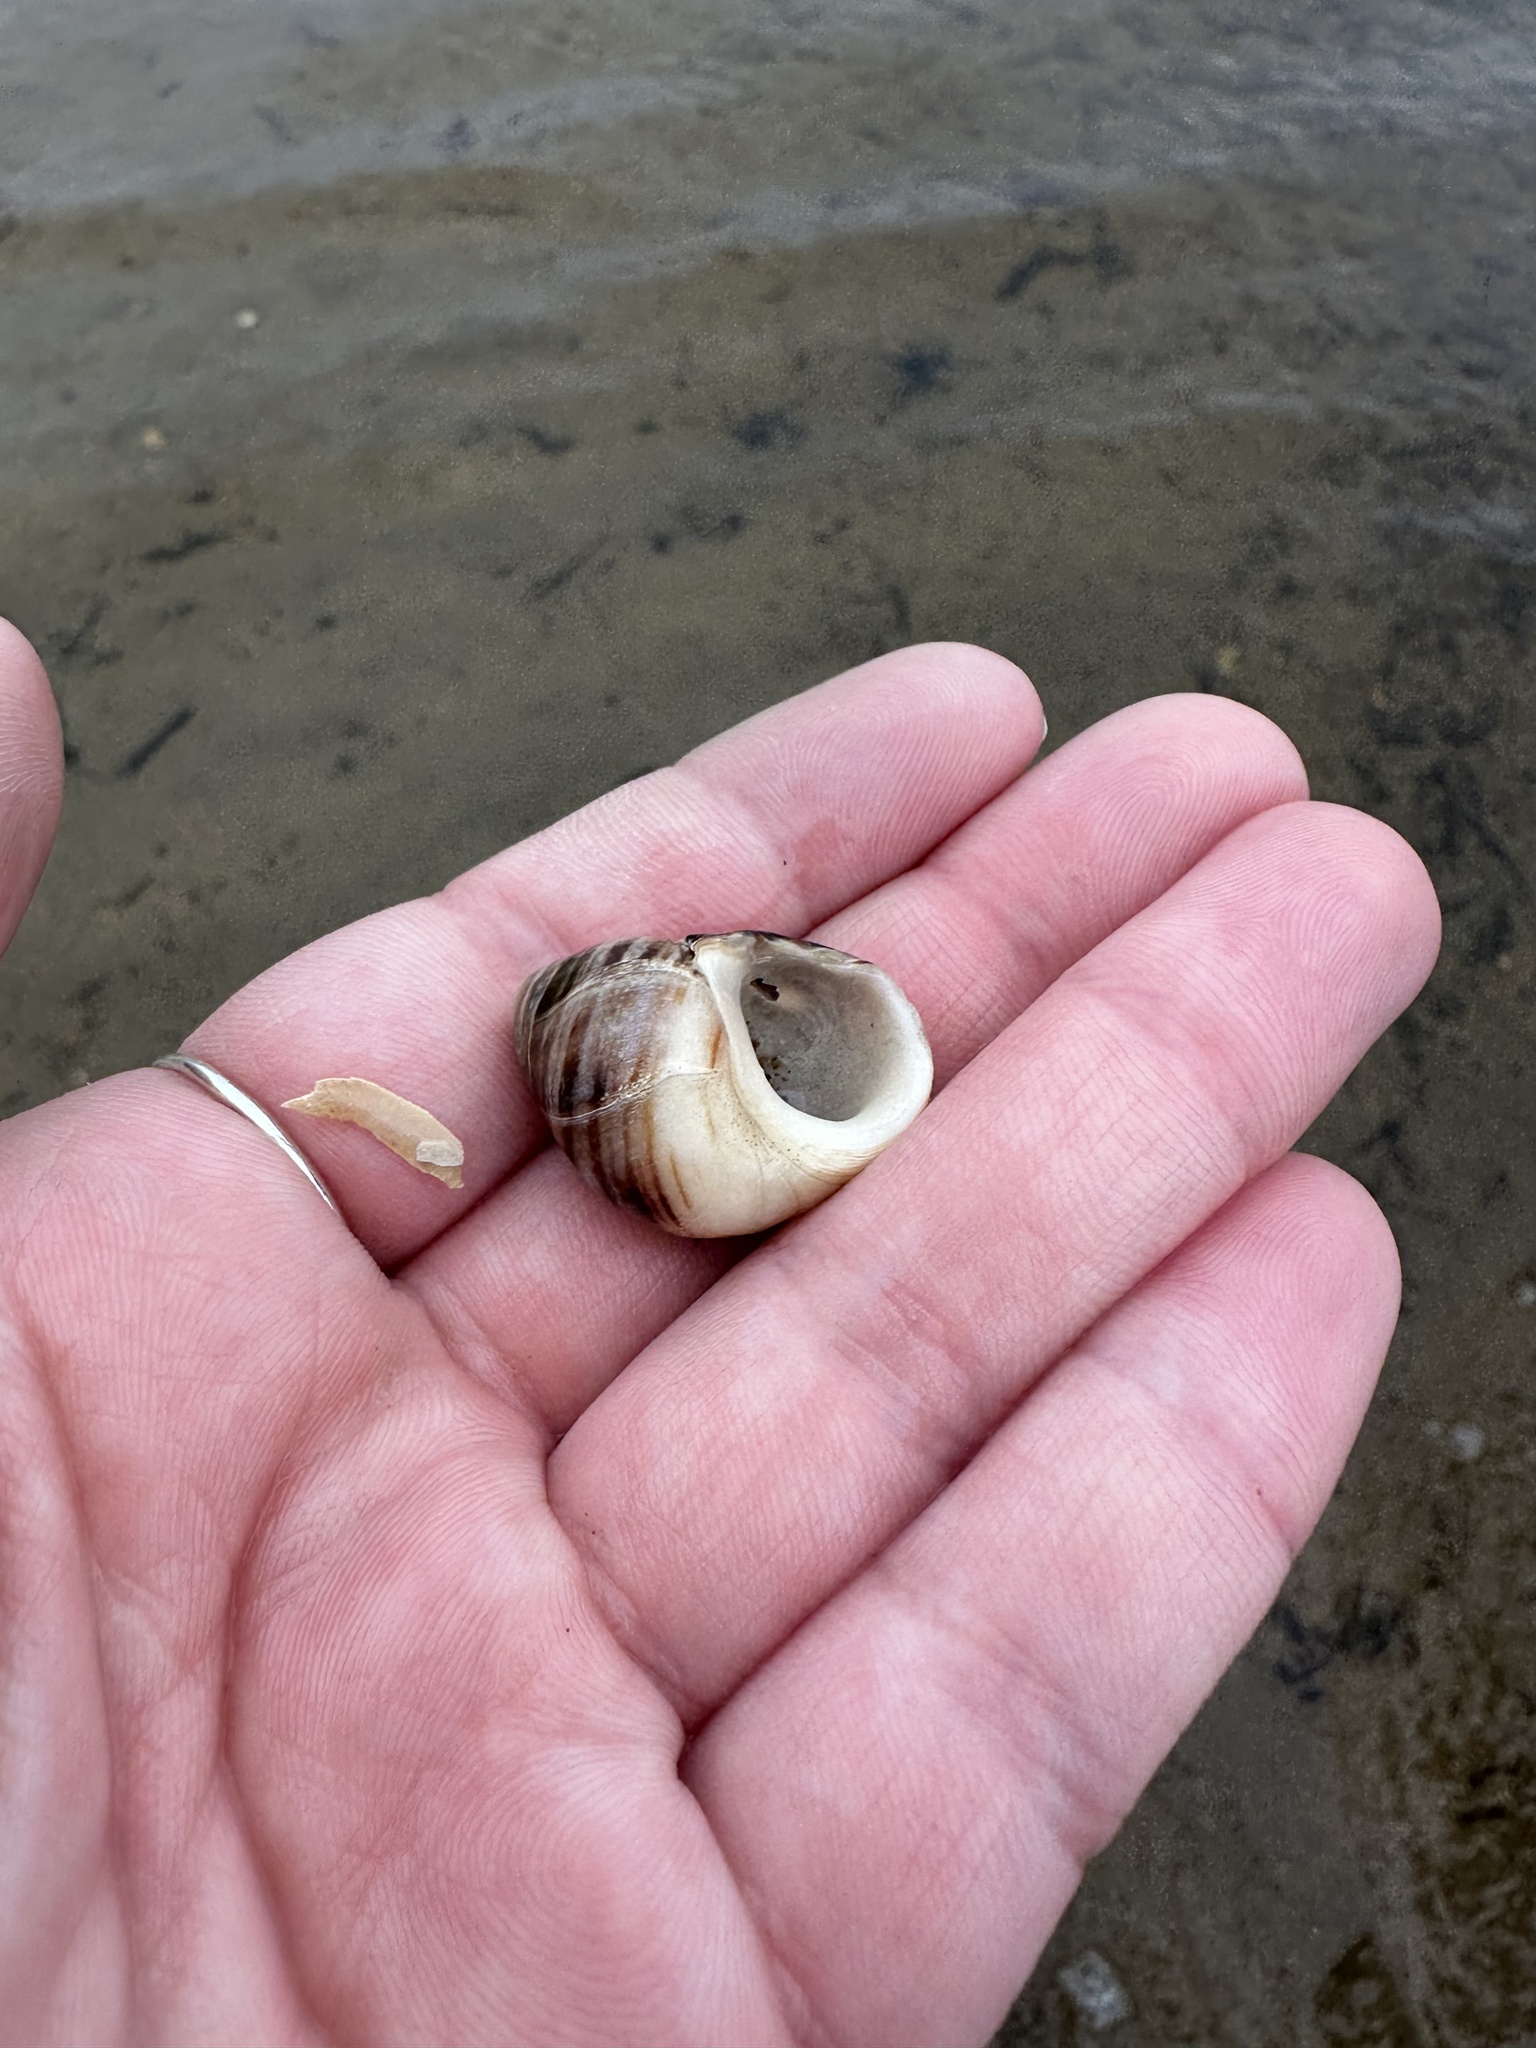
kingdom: Animalia
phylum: Mollusca
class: Gastropoda
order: Littorinimorpha
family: Littorinidae
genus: Littorina
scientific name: Littorina littorea
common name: Common periwinkle
